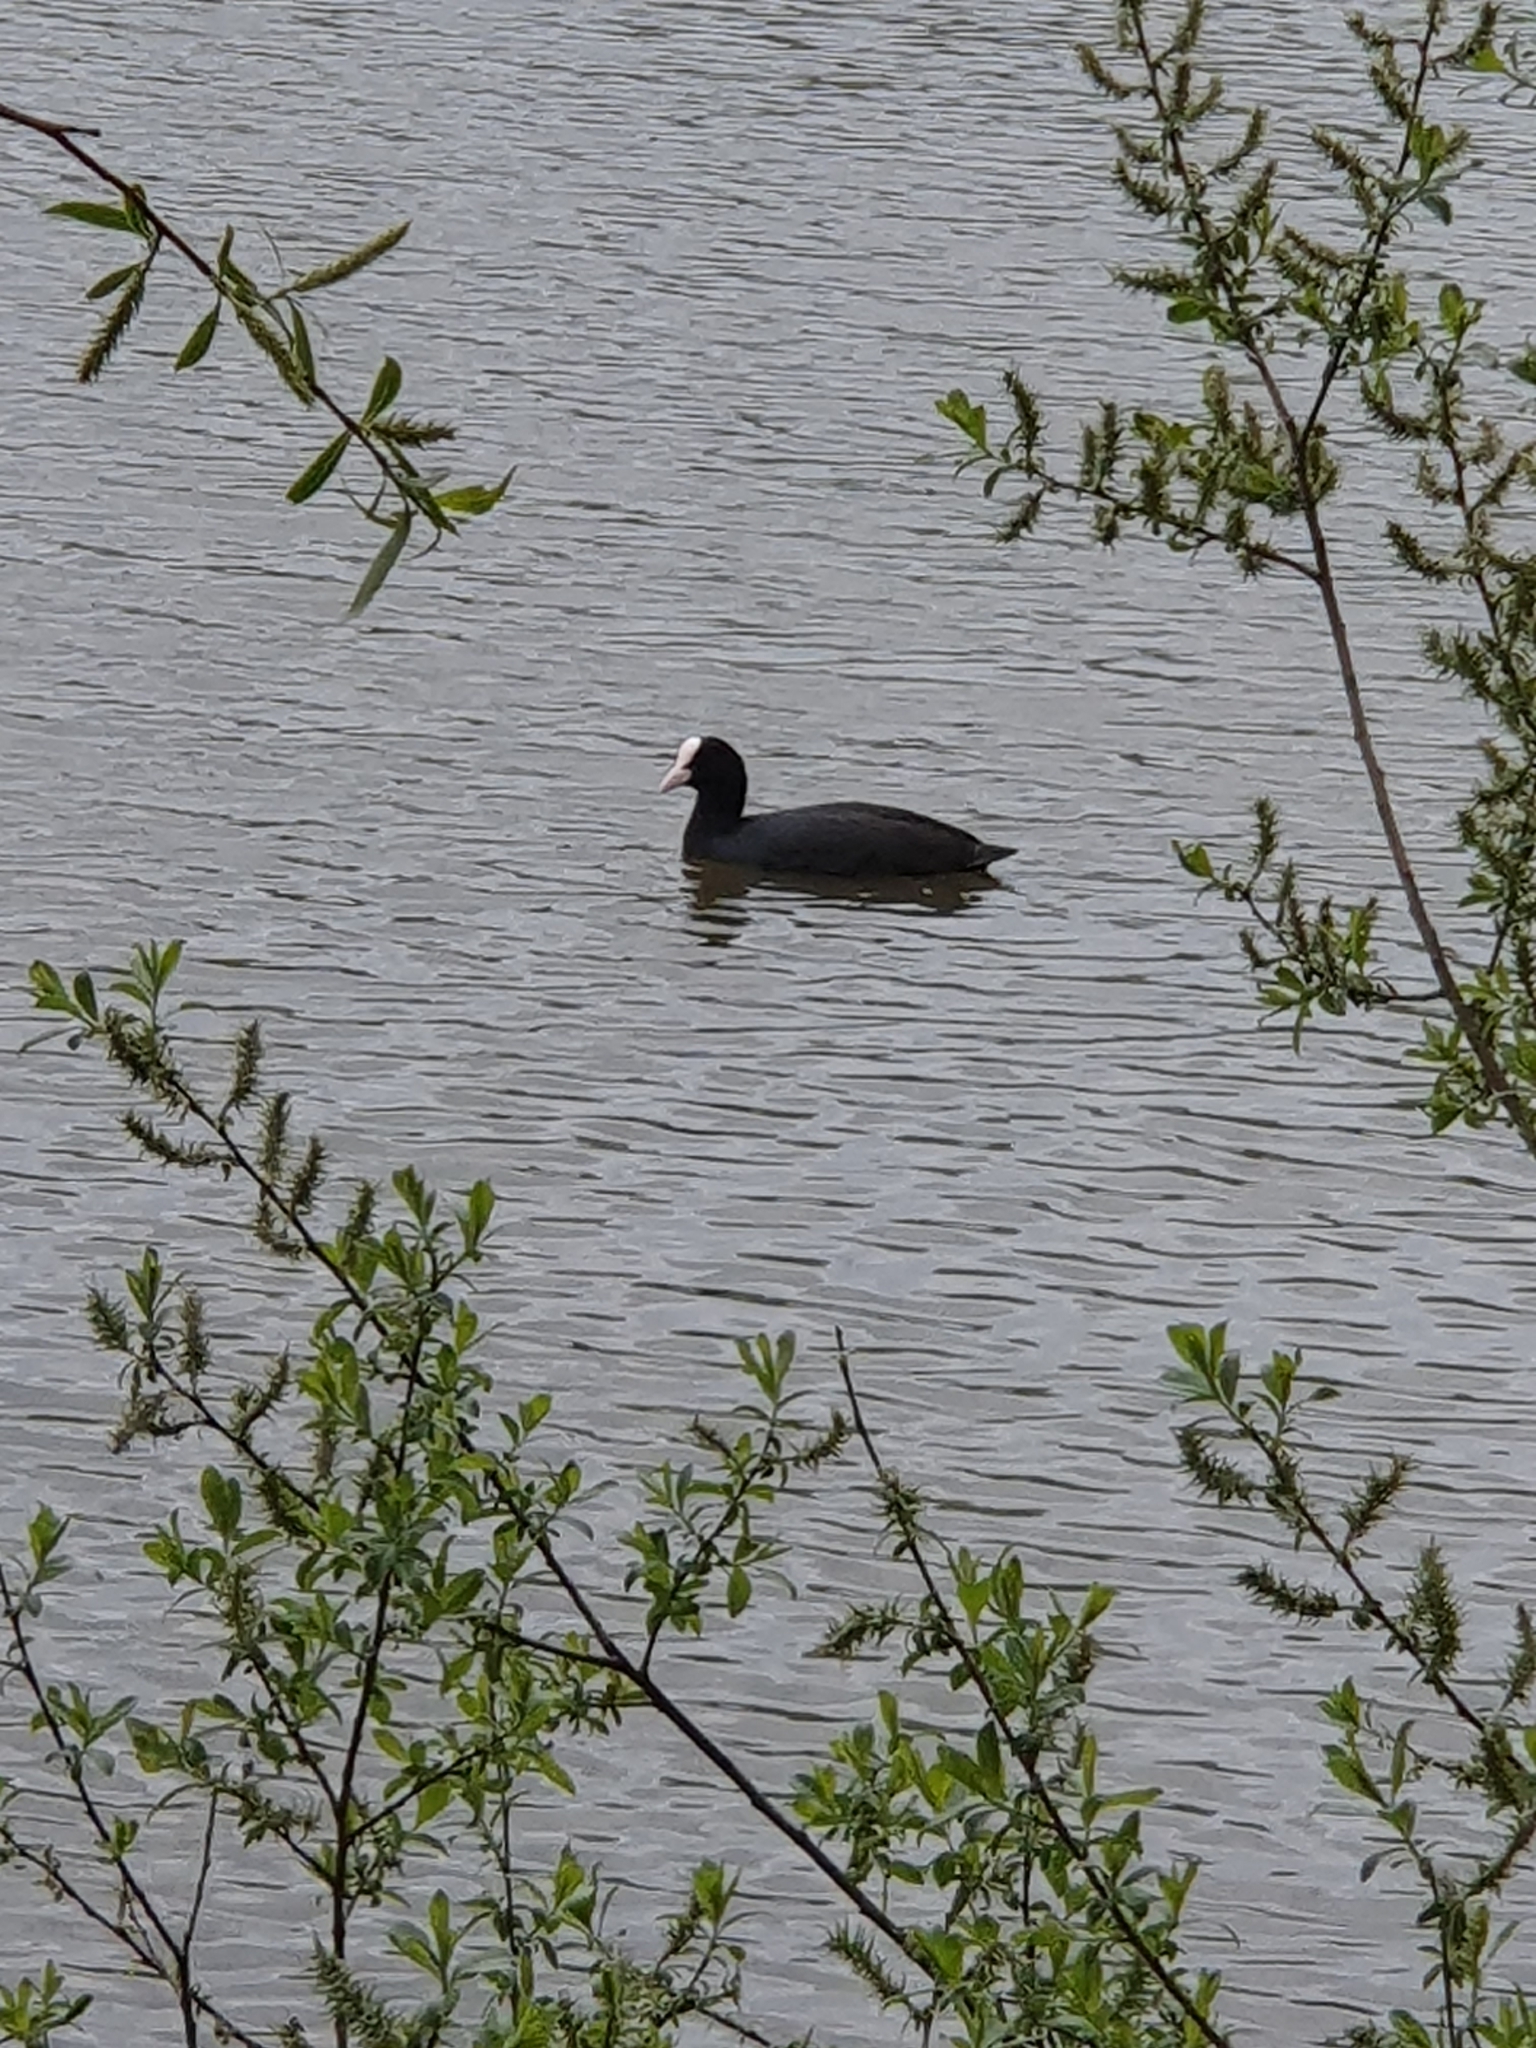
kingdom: Animalia
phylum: Chordata
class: Aves
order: Gruiformes
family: Rallidae
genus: Fulica
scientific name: Fulica atra
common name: Eurasian coot
